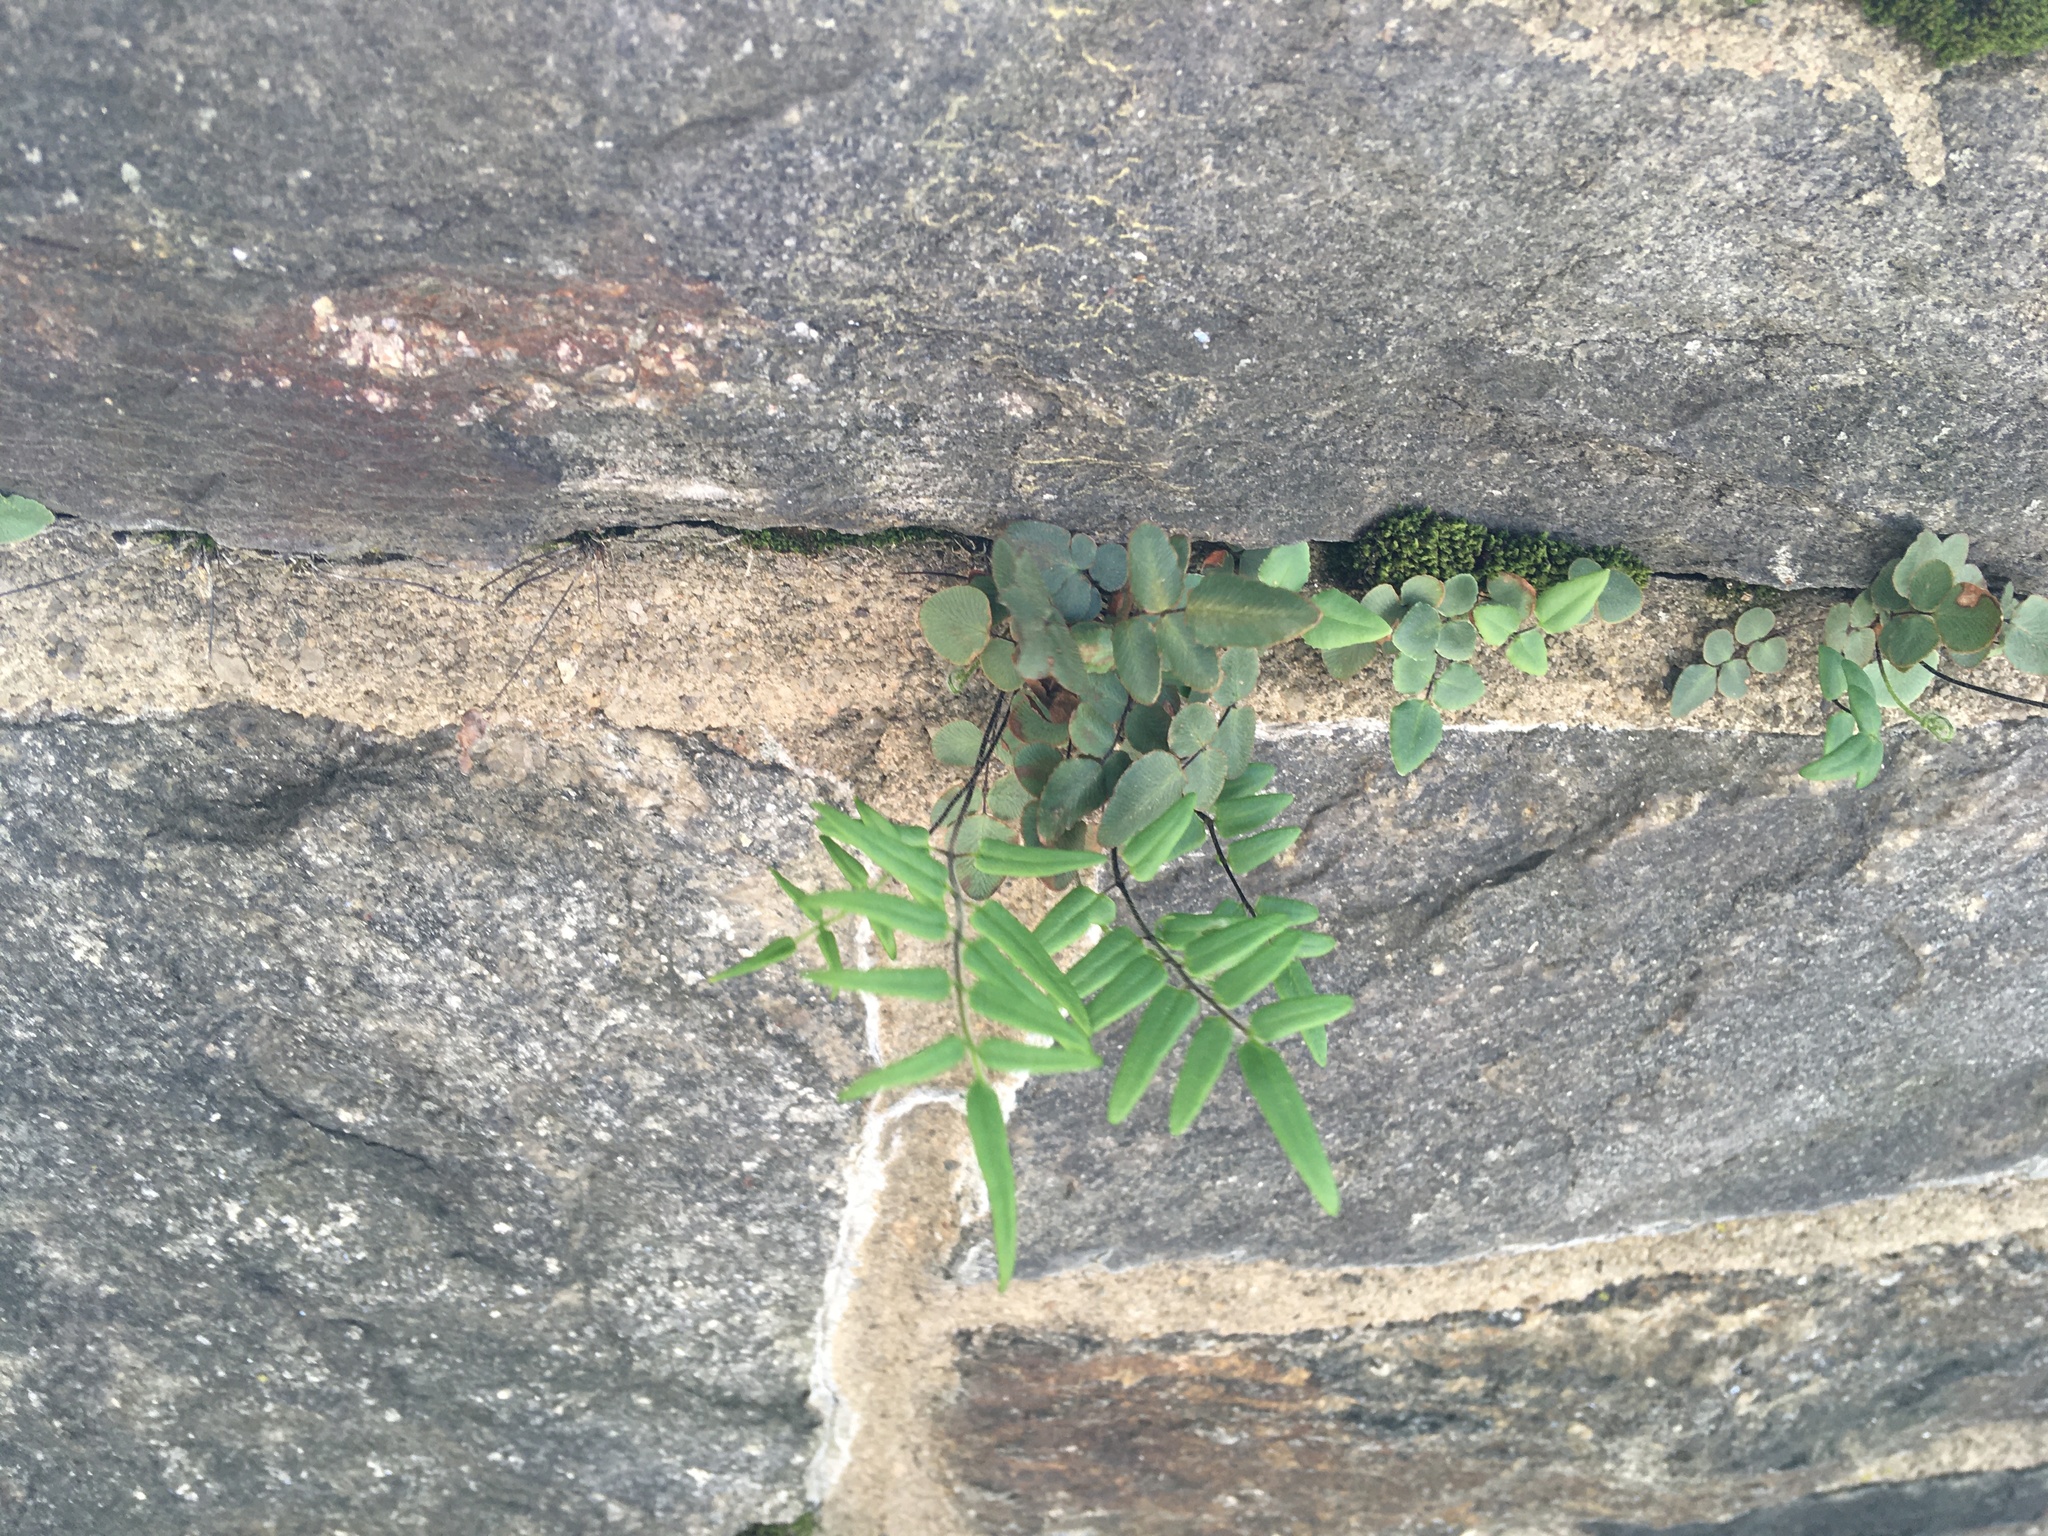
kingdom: Plantae
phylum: Tracheophyta
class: Polypodiopsida
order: Polypodiales
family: Pteridaceae
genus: Pellaea
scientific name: Pellaea atropurpurea
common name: Hairy cliffbrake
